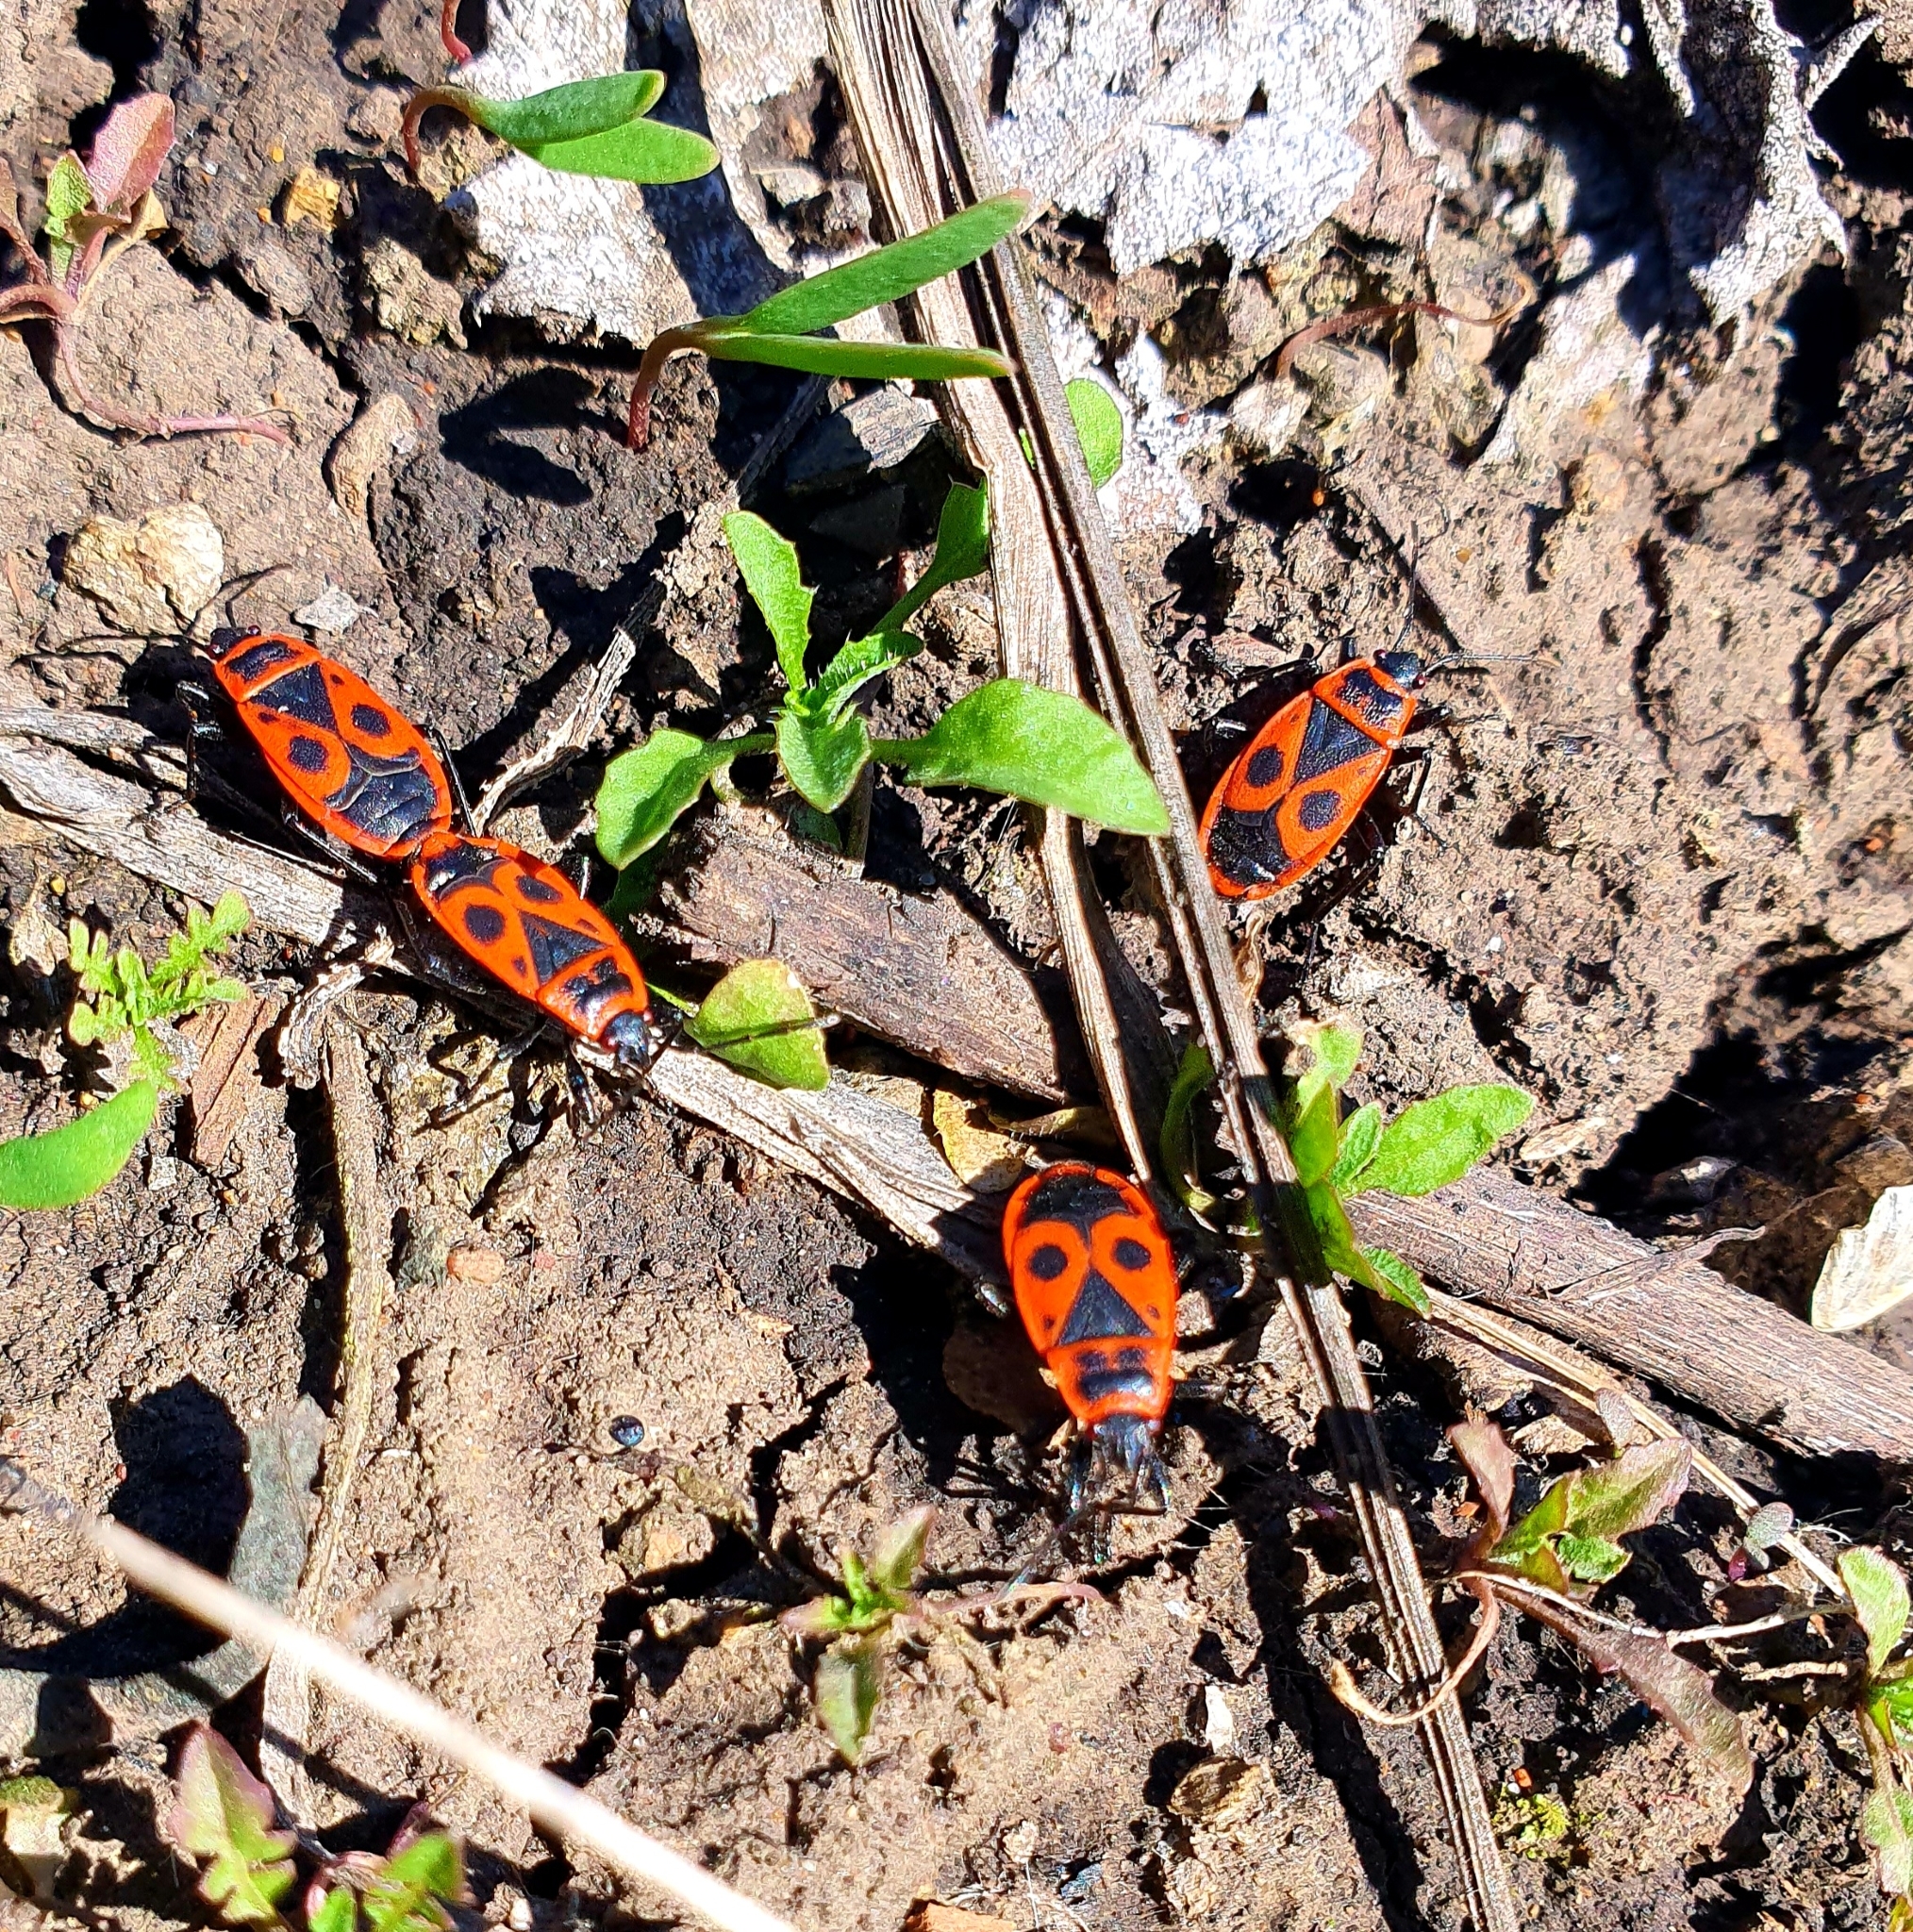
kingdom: Animalia
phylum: Arthropoda
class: Insecta
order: Hemiptera
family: Pyrrhocoridae
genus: Pyrrhocoris
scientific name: Pyrrhocoris apterus
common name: Firebug
